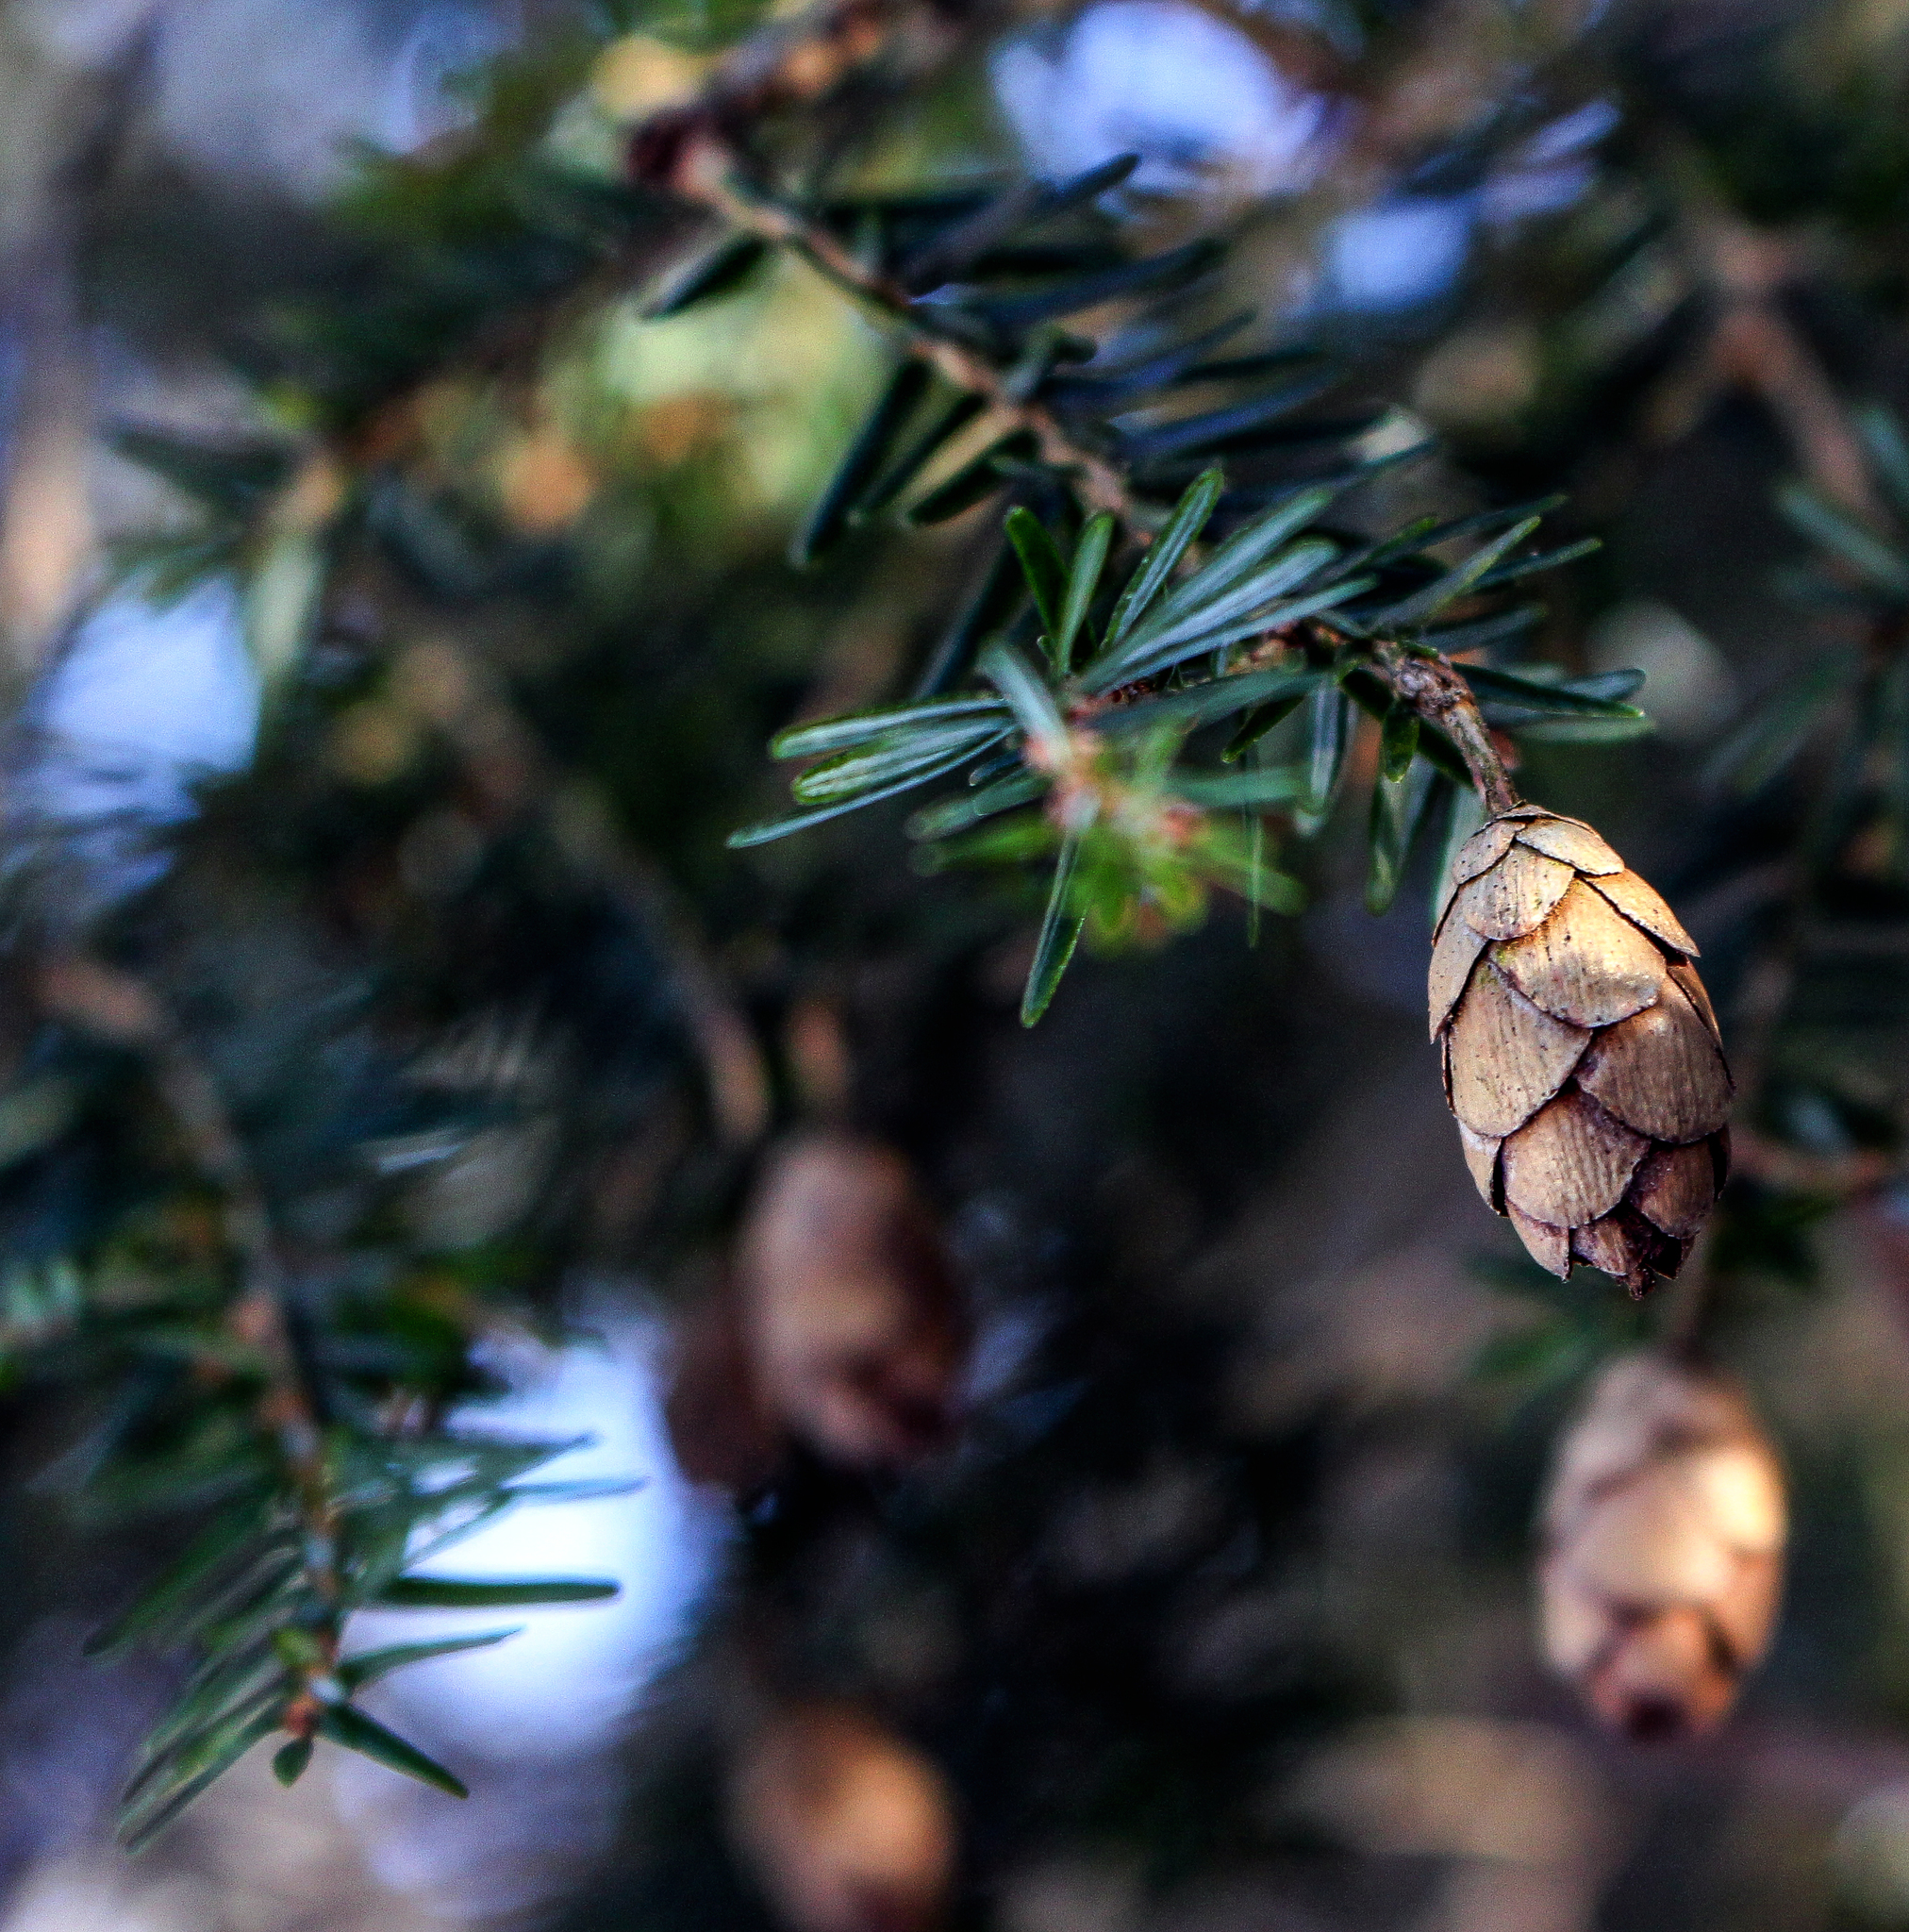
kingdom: Plantae
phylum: Tracheophyta
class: Pinopsida
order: Pinales
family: Pinaceae
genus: Tsuga
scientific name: Tsuga canadensis
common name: Eastern hemlock
